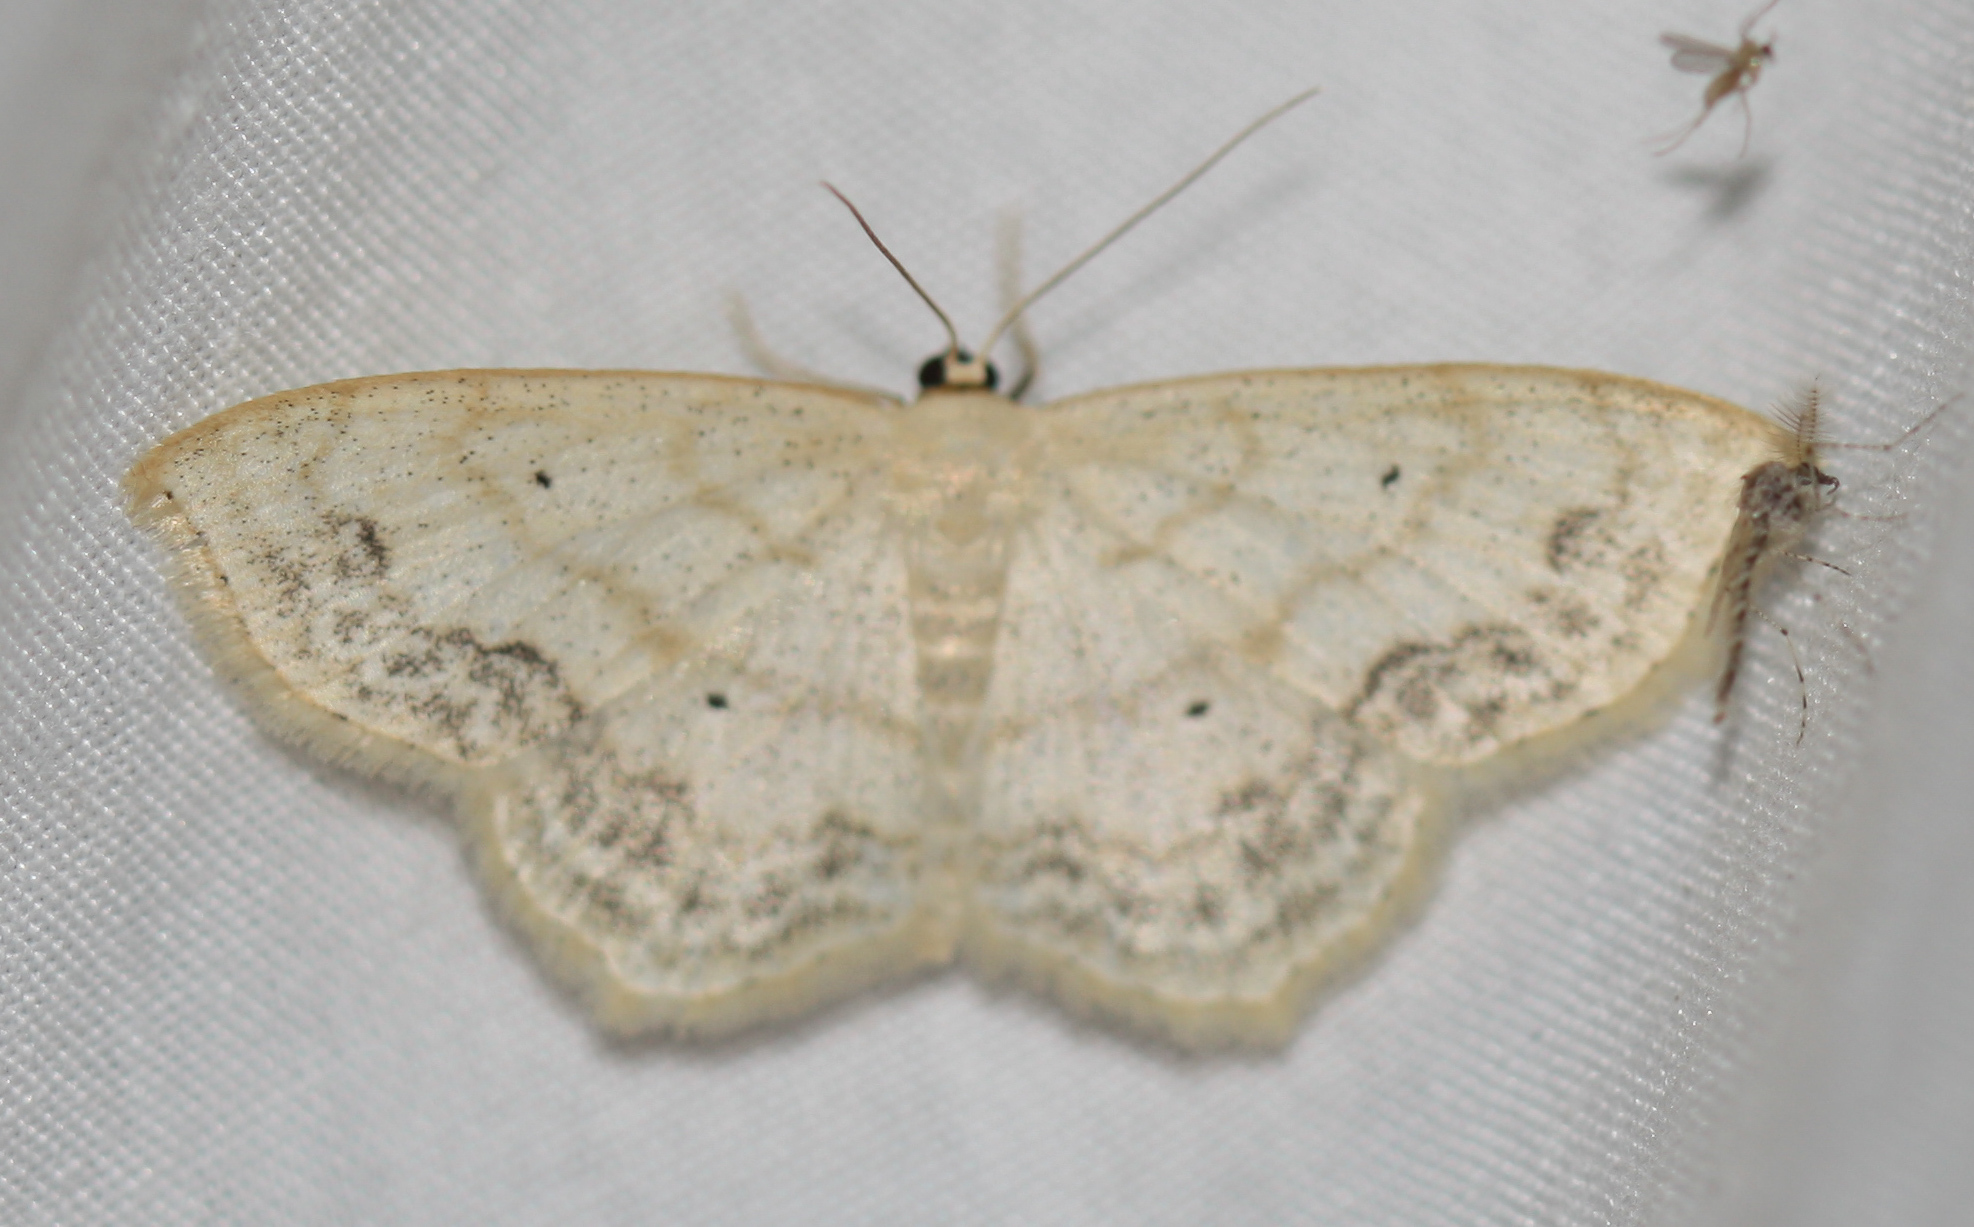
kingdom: Animalia
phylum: Arthropoda
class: Insecta
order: Lepidoptera
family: Geometridae
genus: Scopula
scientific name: Scopula limboundata
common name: Large lace border
